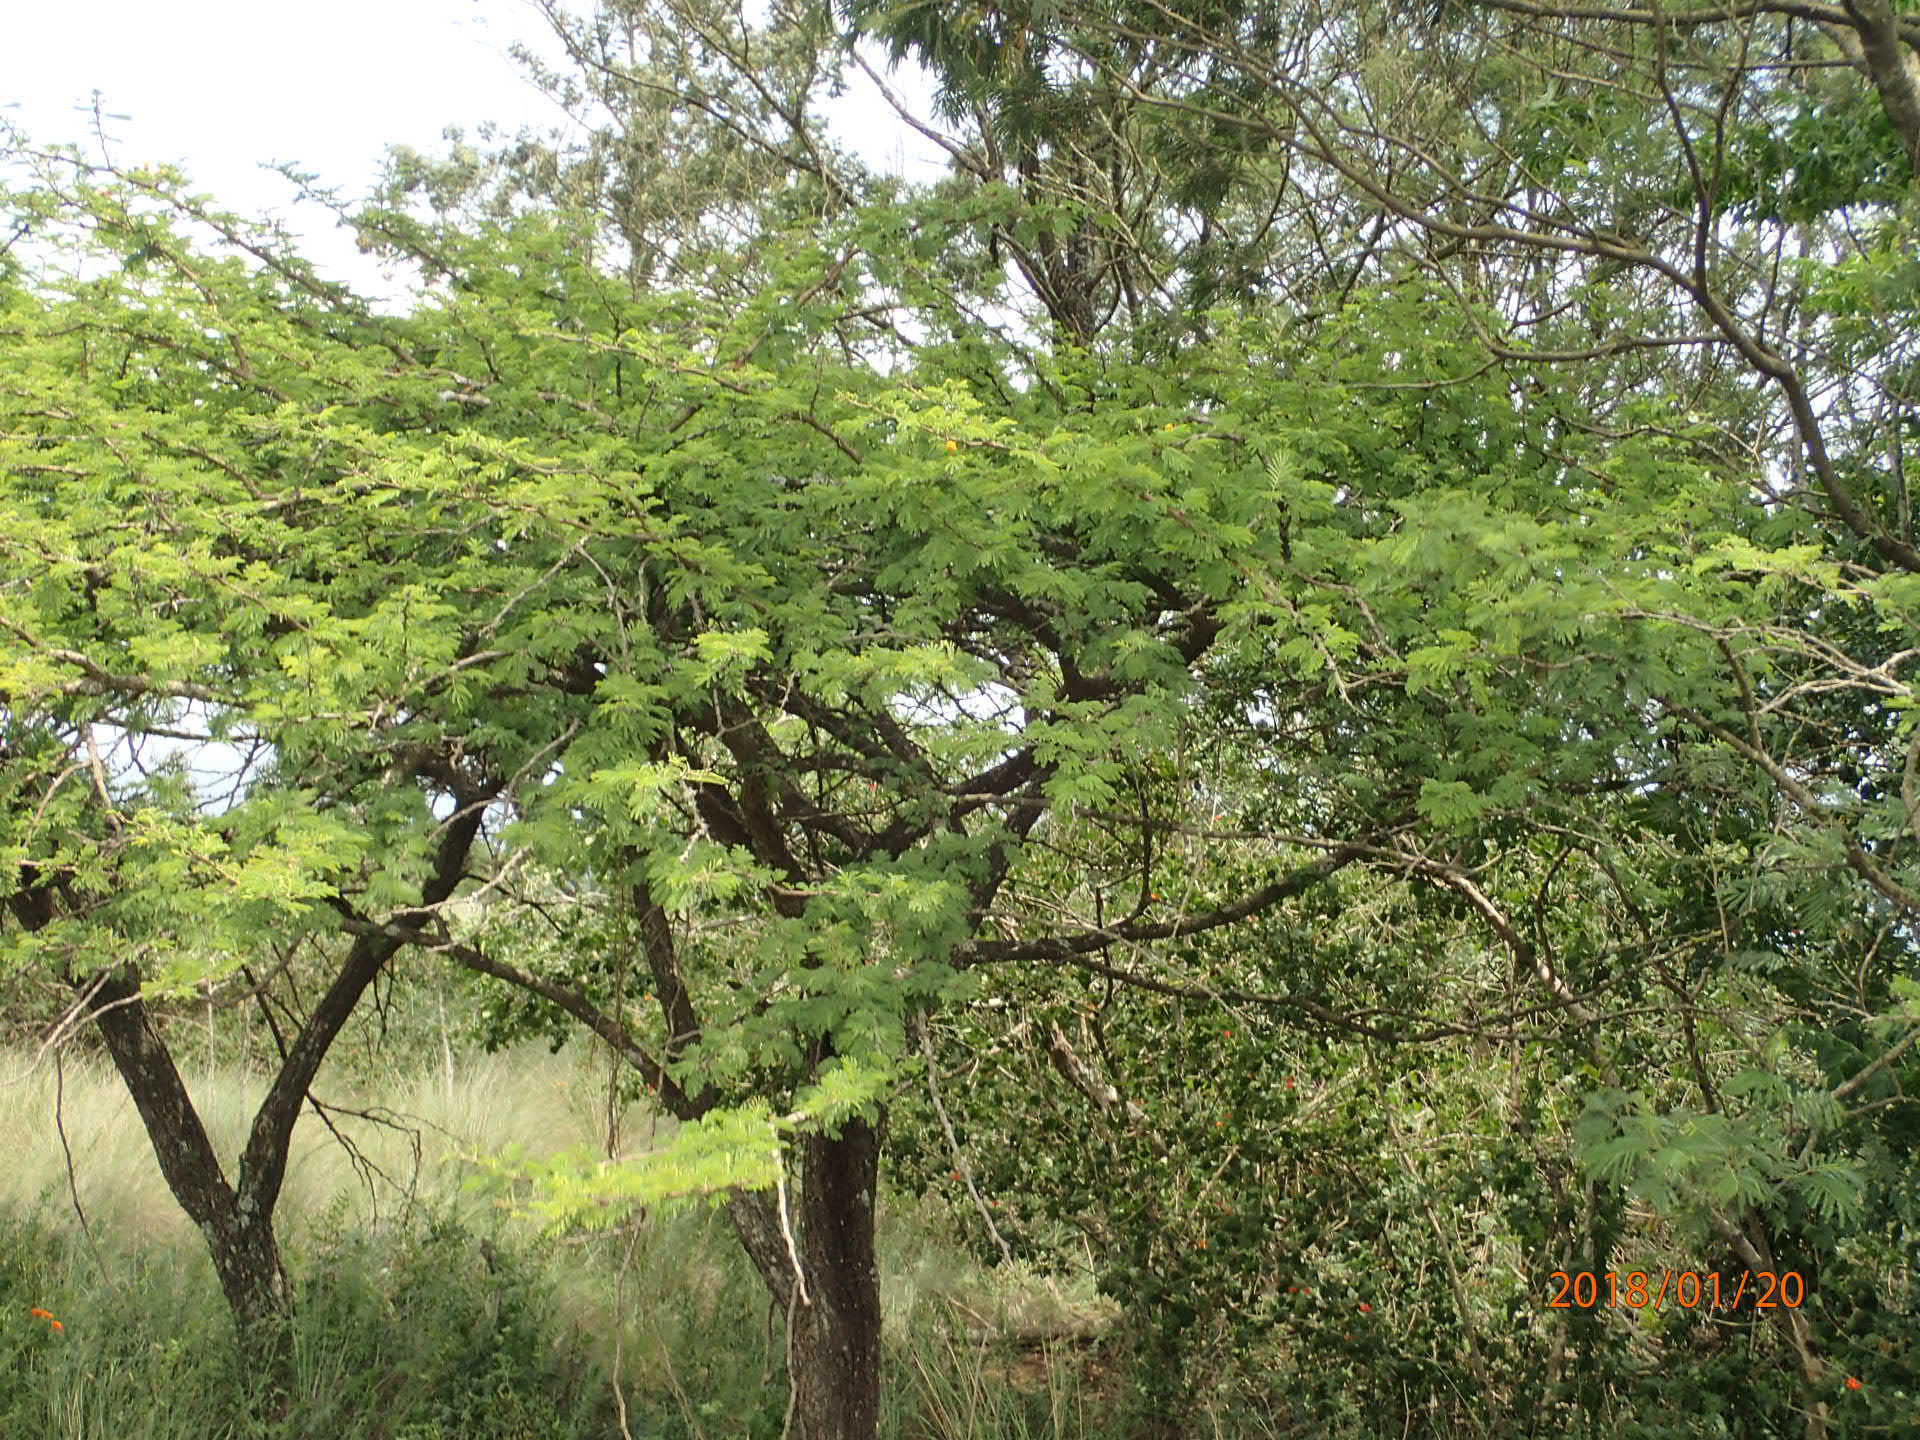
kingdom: Plantae
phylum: Tracheophyta
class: Magnoliopsida
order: Fabales
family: Fabaceae
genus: Vachellia
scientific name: Vachellia nilotica
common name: Arabic gumtree
